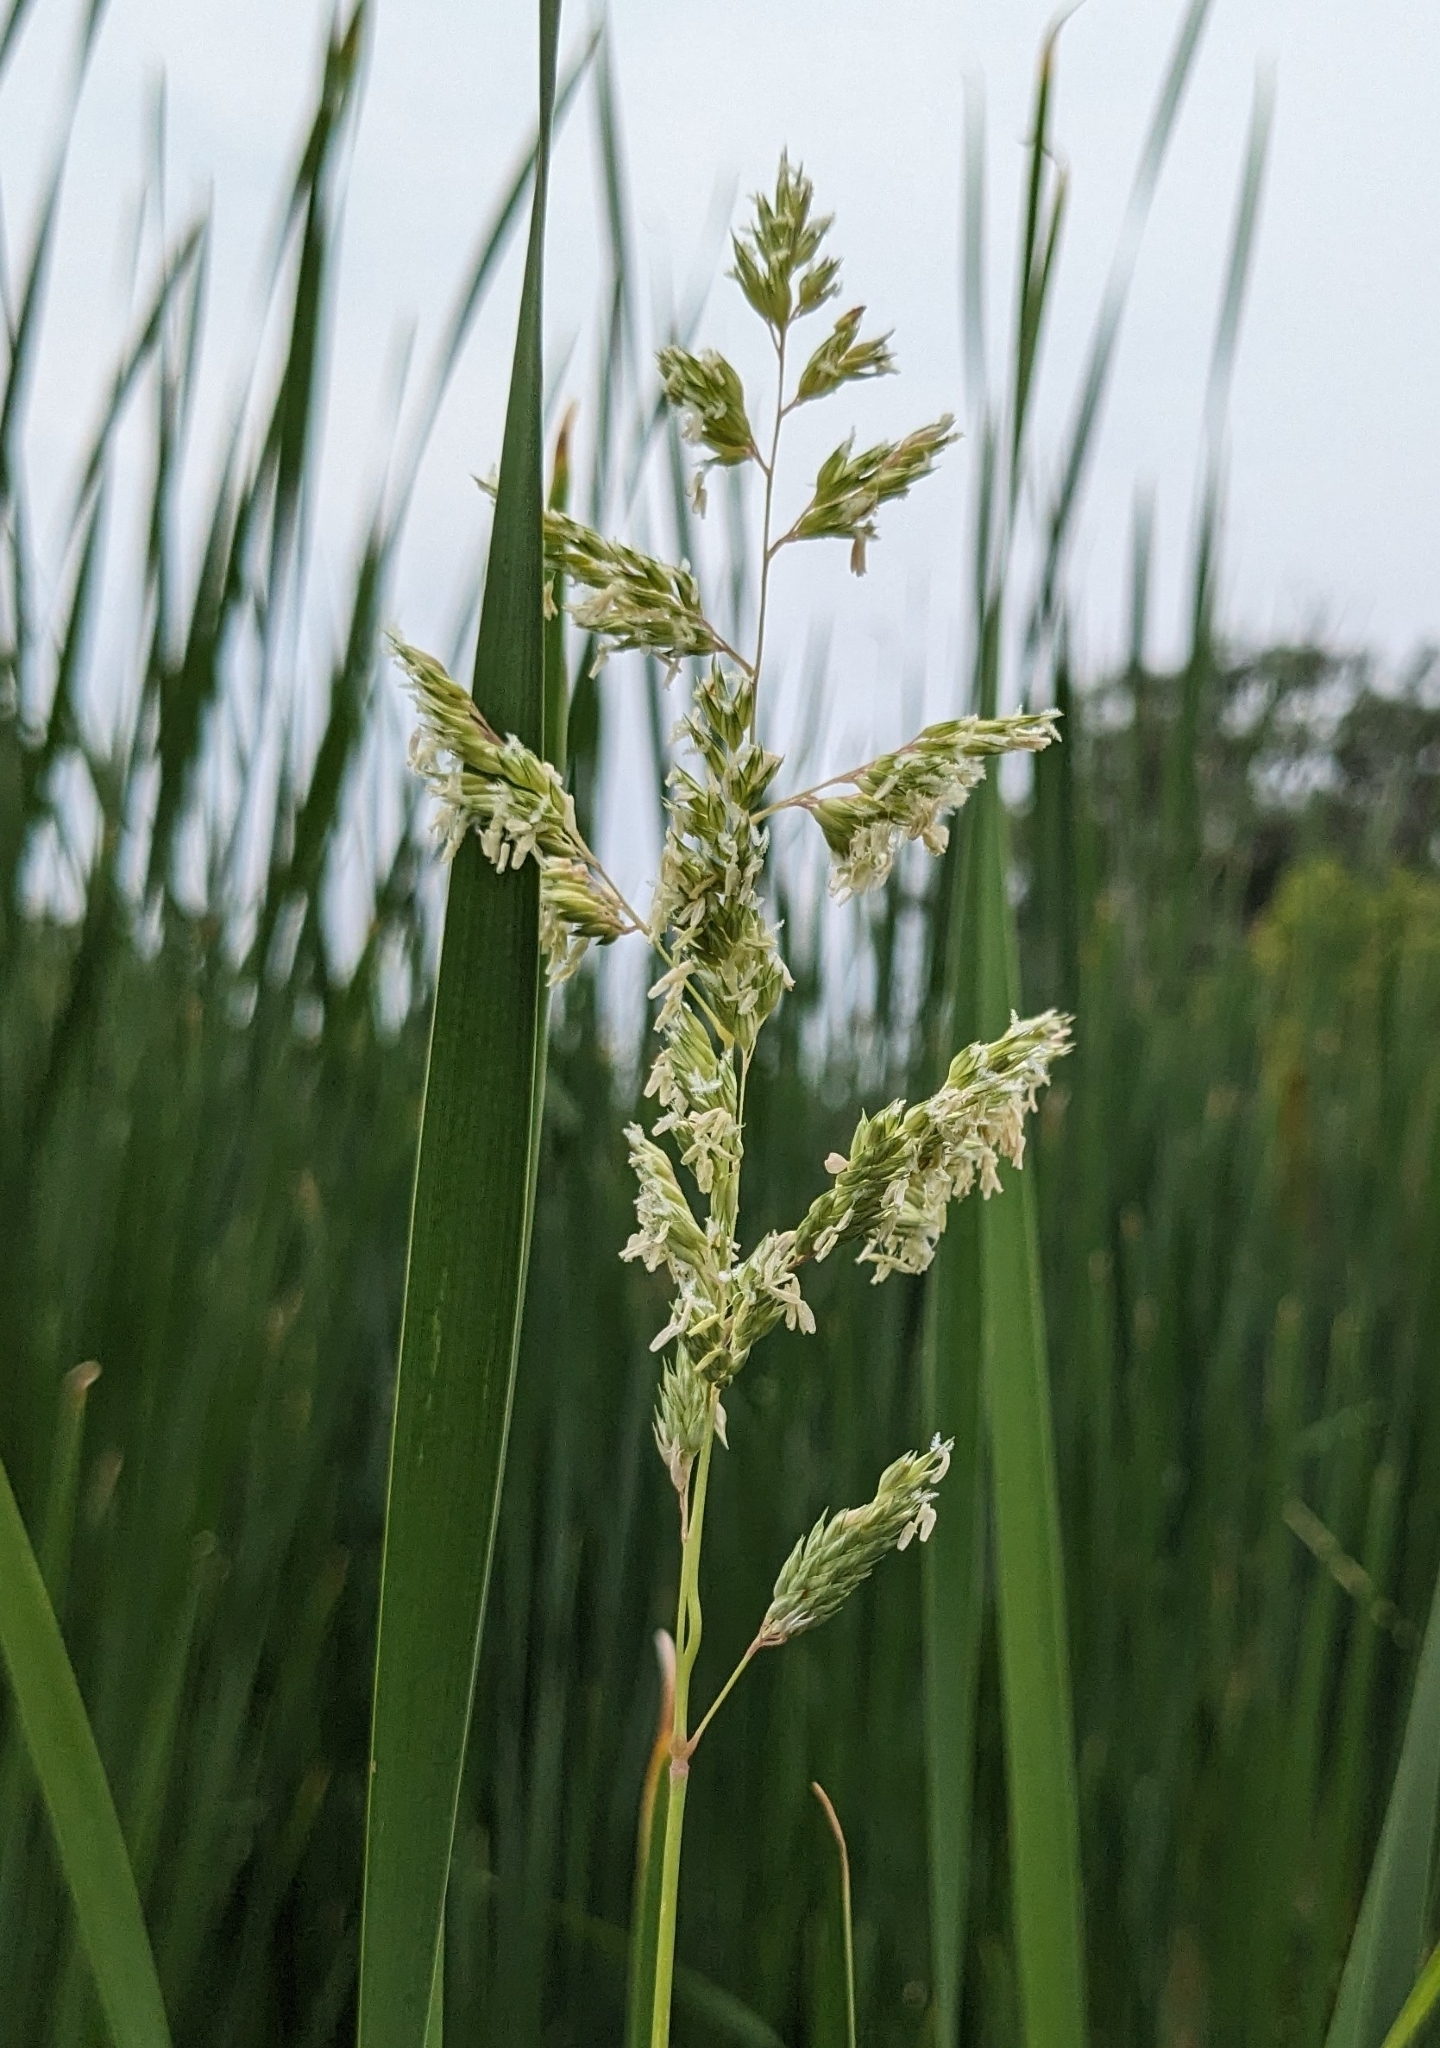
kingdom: Plantae
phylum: Tracheophyta
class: Liliopsida
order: Poales
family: Poaceae
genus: Phalaris
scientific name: Phalaris arundinacea
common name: Reed canary-grass
